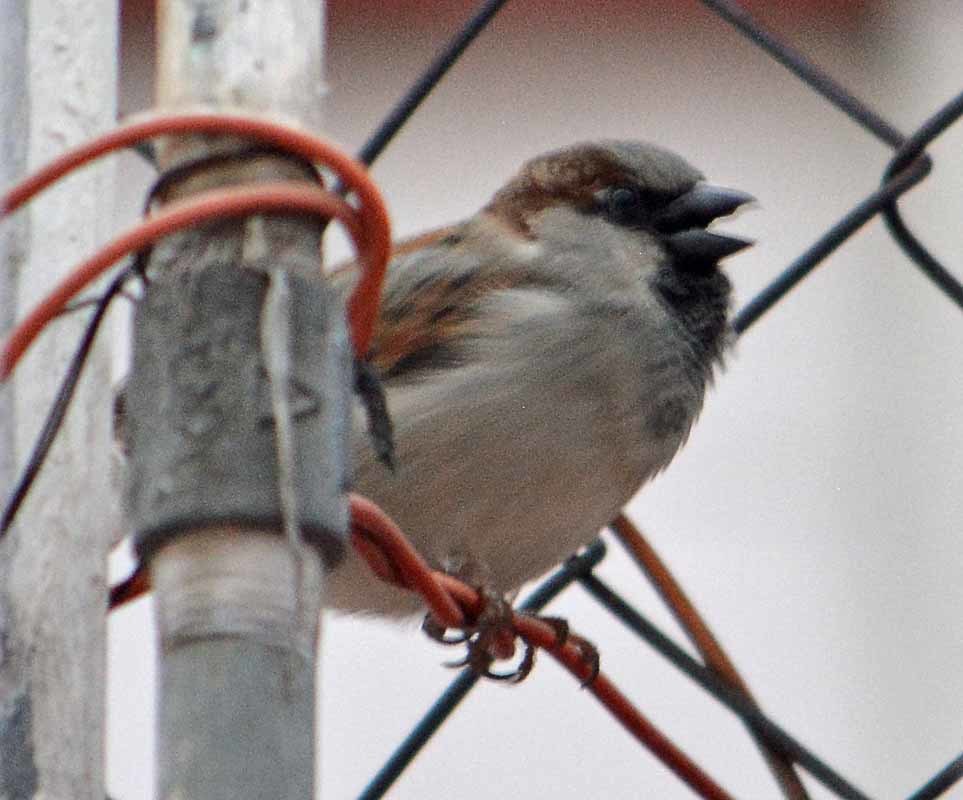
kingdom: Animalia
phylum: Chordata
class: Aves
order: Passeriformes
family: Passeridae
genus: Passer
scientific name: Passer domesticus
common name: House sparrow
